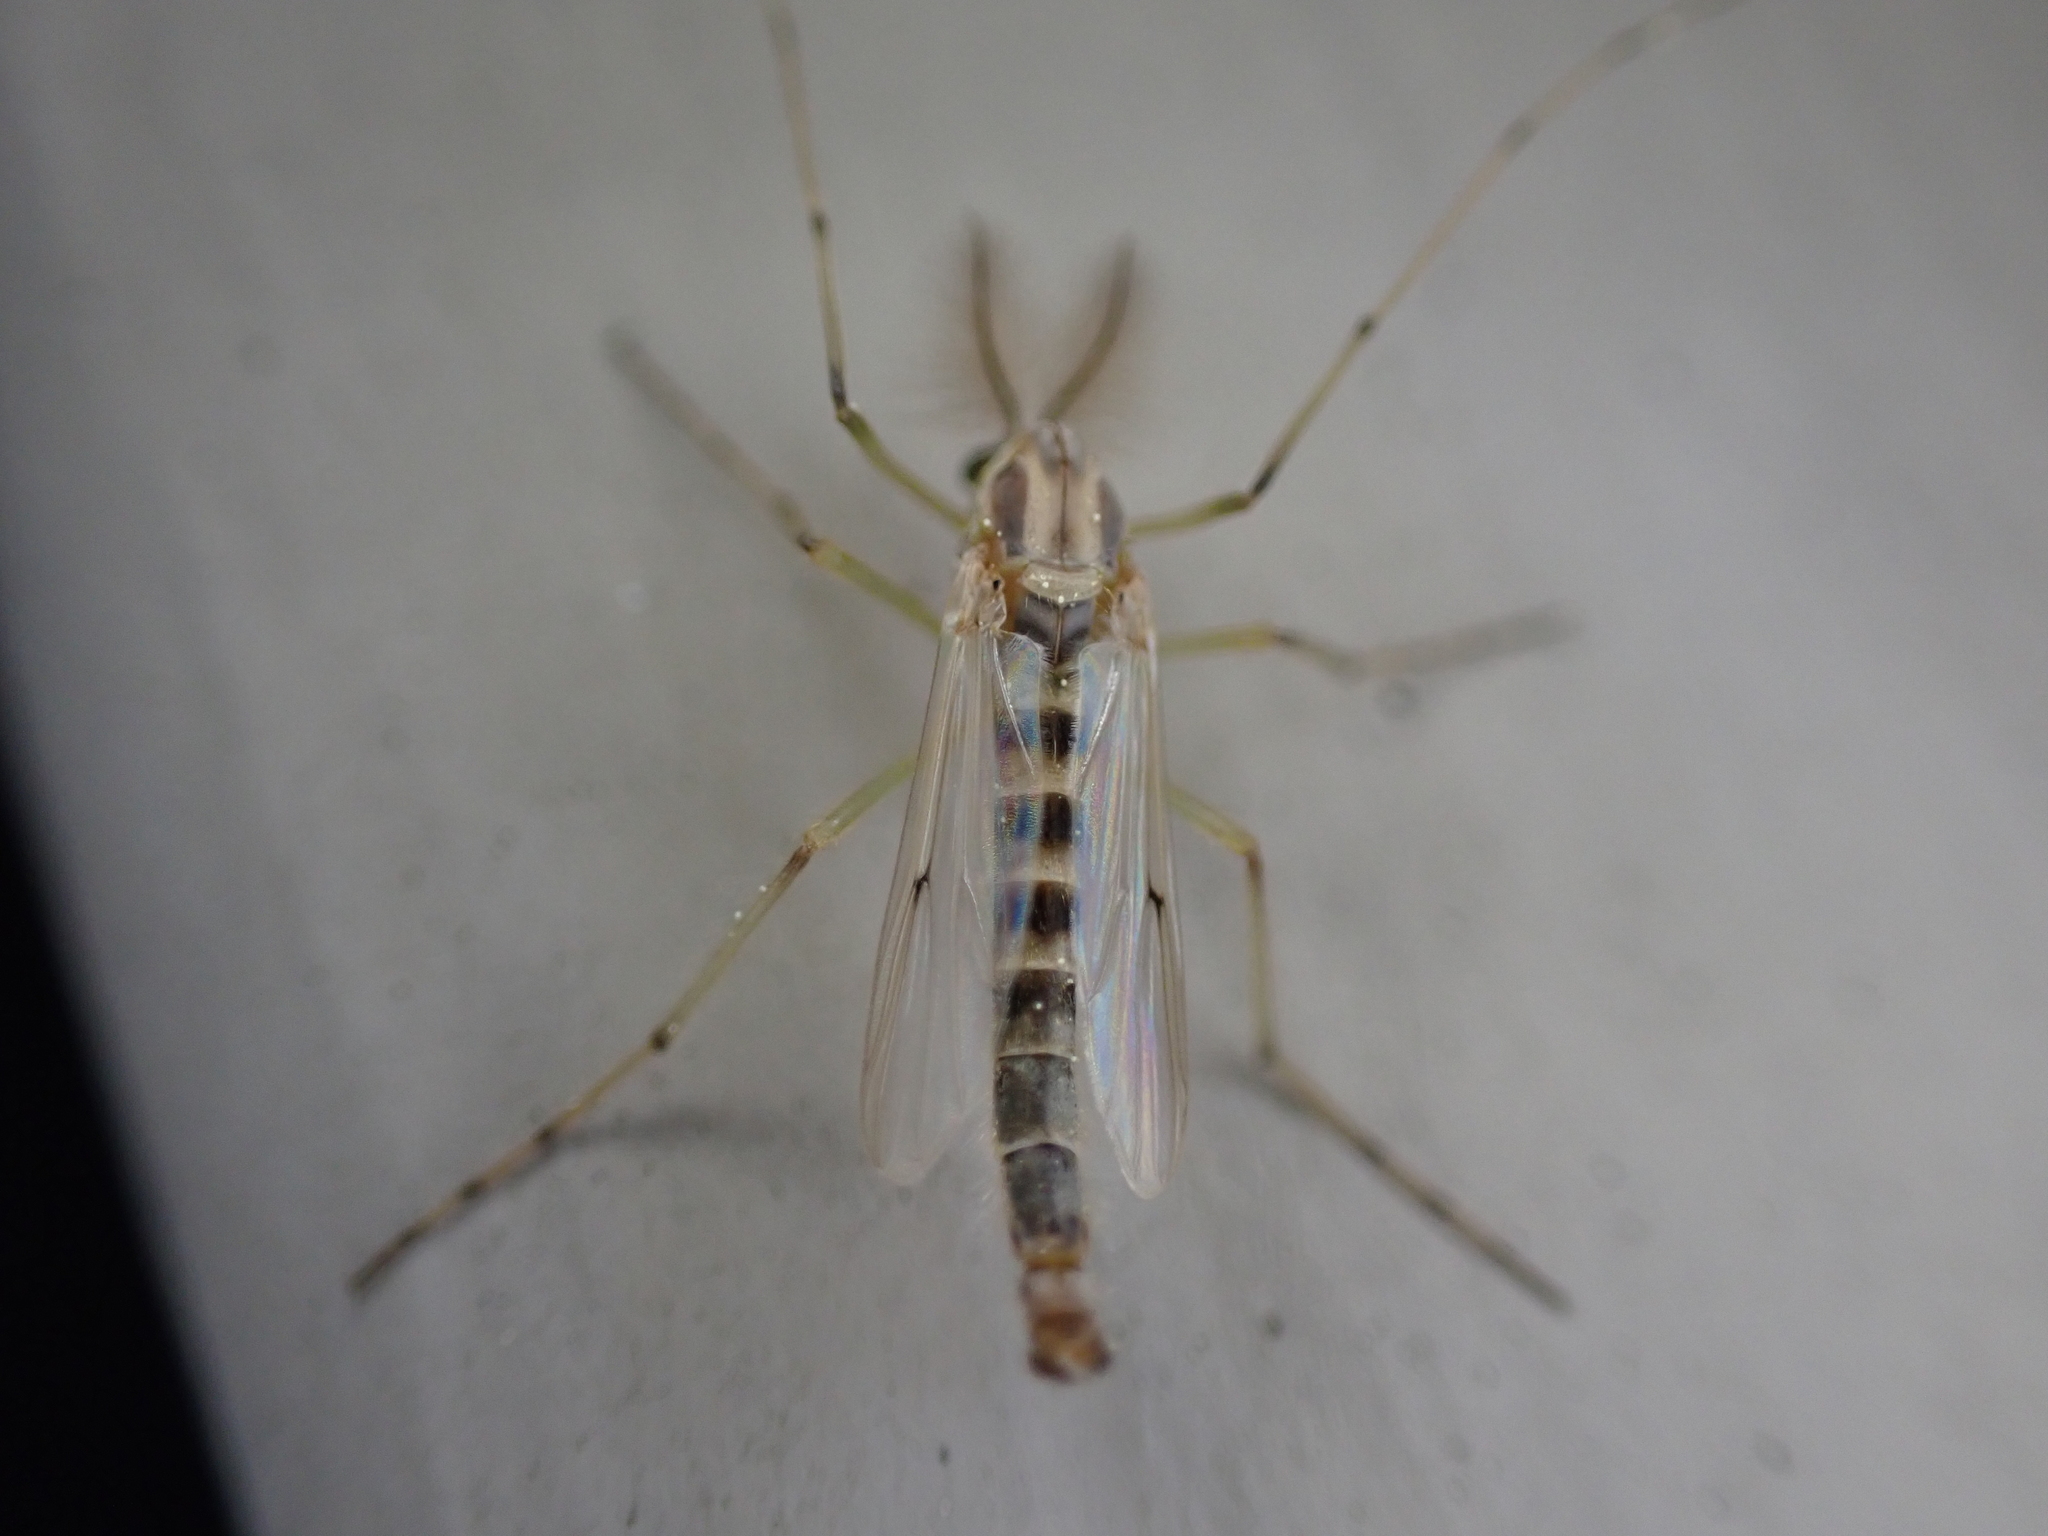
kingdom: Animalia
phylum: Arthropoda
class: Insecta
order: Diptera
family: Chironomidae
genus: Chironomus
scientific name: Chironomus crassicaudatus
